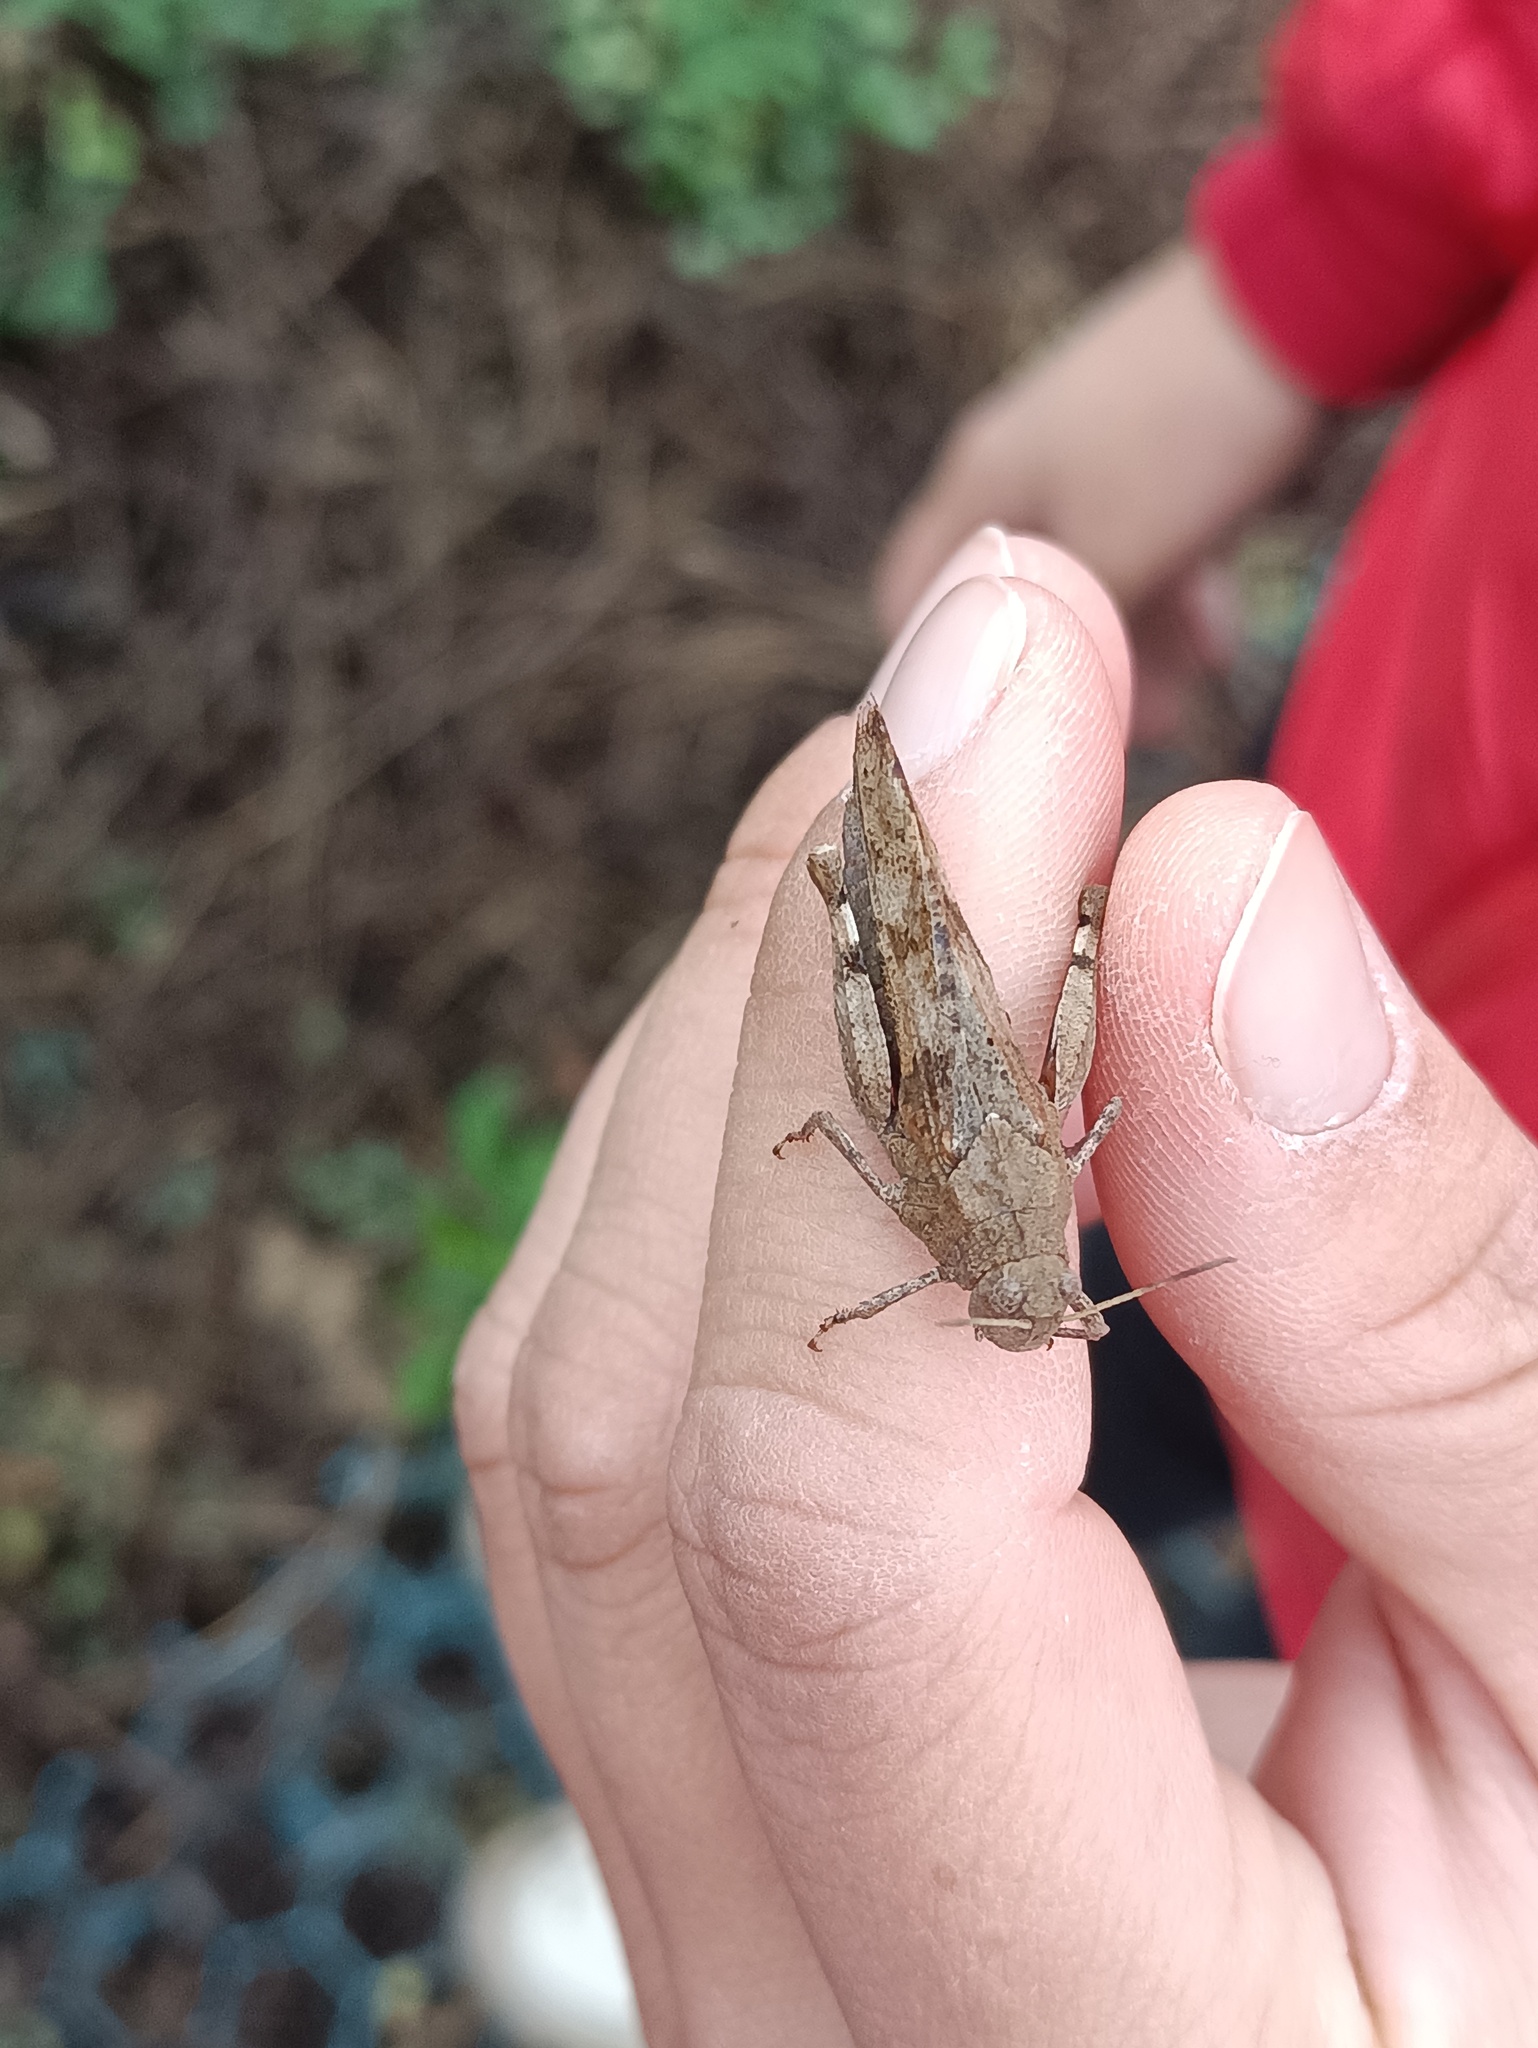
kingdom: Animalia
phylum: Arthropoda
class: Insecta
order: Orthoptera
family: Acrididae
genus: Oedipoda
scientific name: Oedipoda caerulescens
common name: Blue-winged grasshopper
